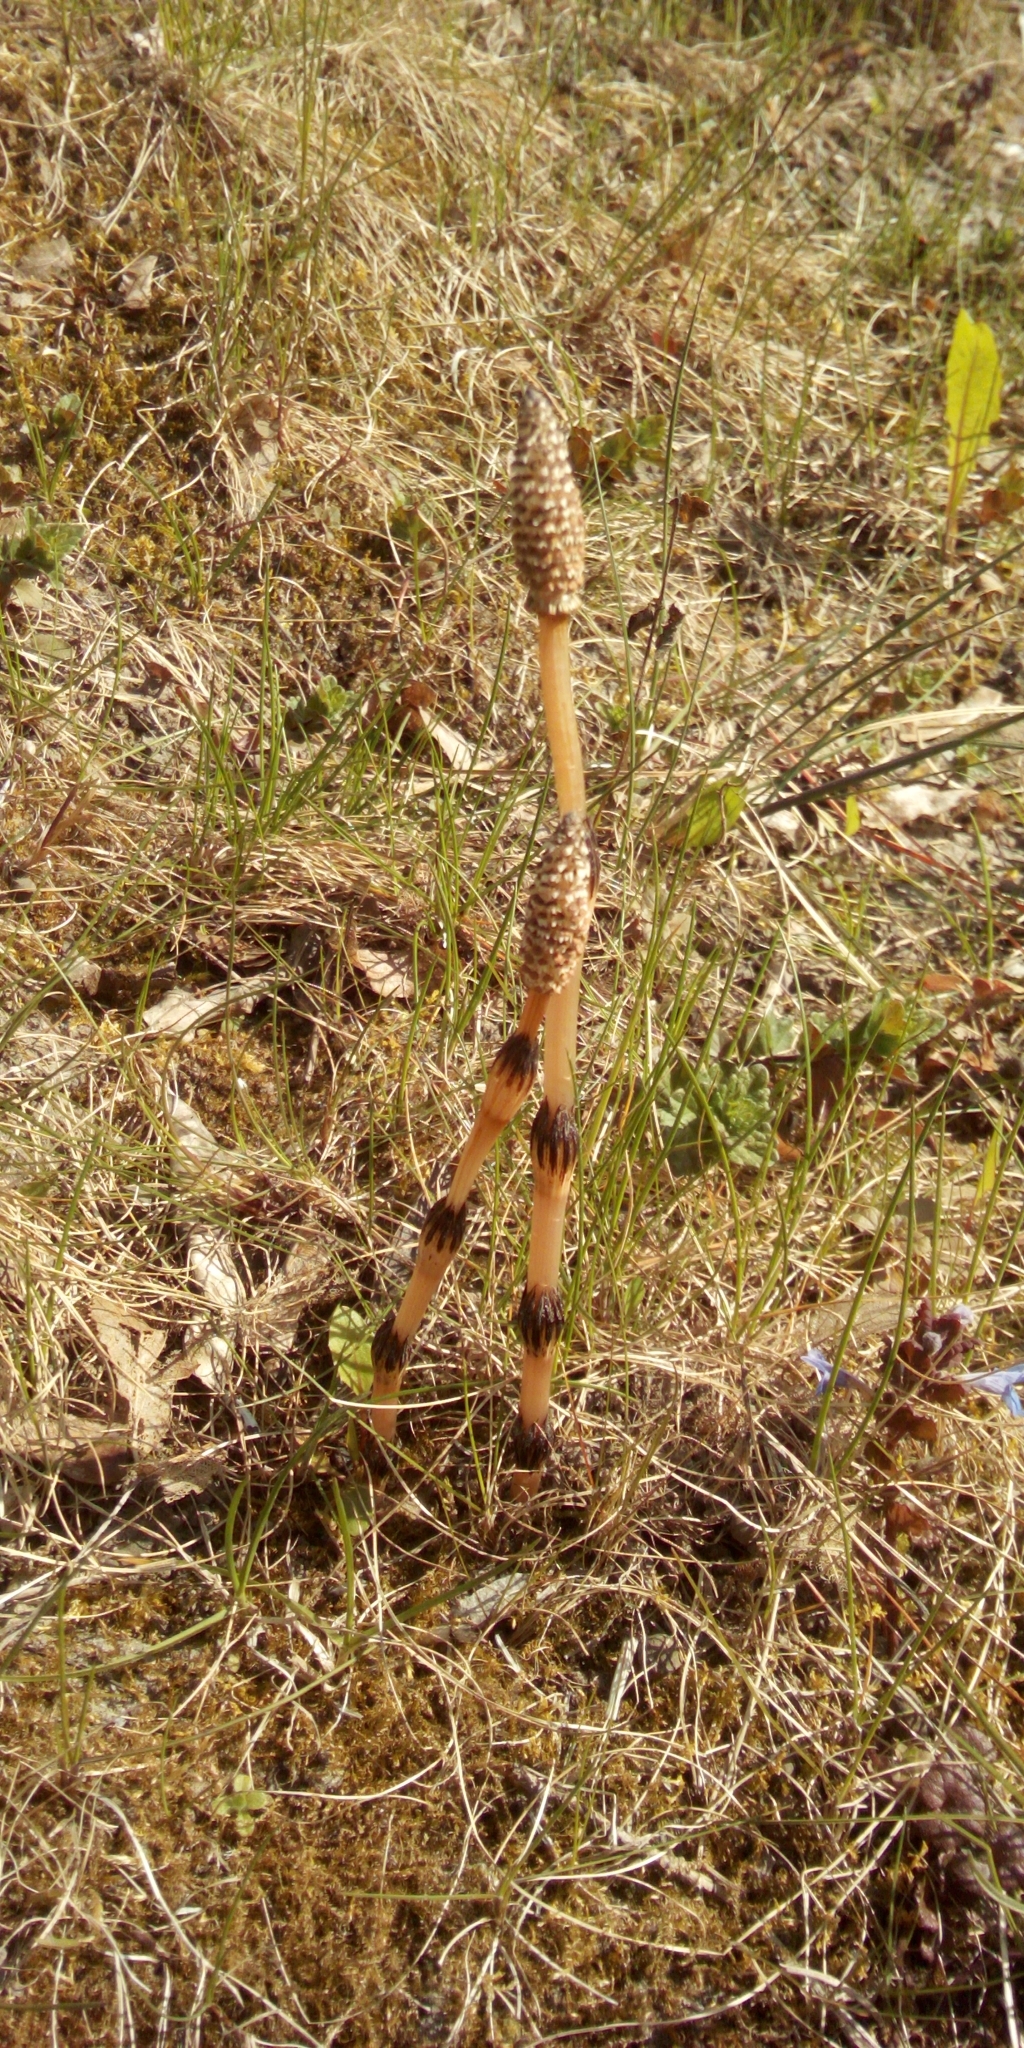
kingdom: Plantae
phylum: Tracheophyta
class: Polypodiopsida
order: Equisetales
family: Equisetaceae
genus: Equisetum
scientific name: Equisetum arvense
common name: Field horsetail
